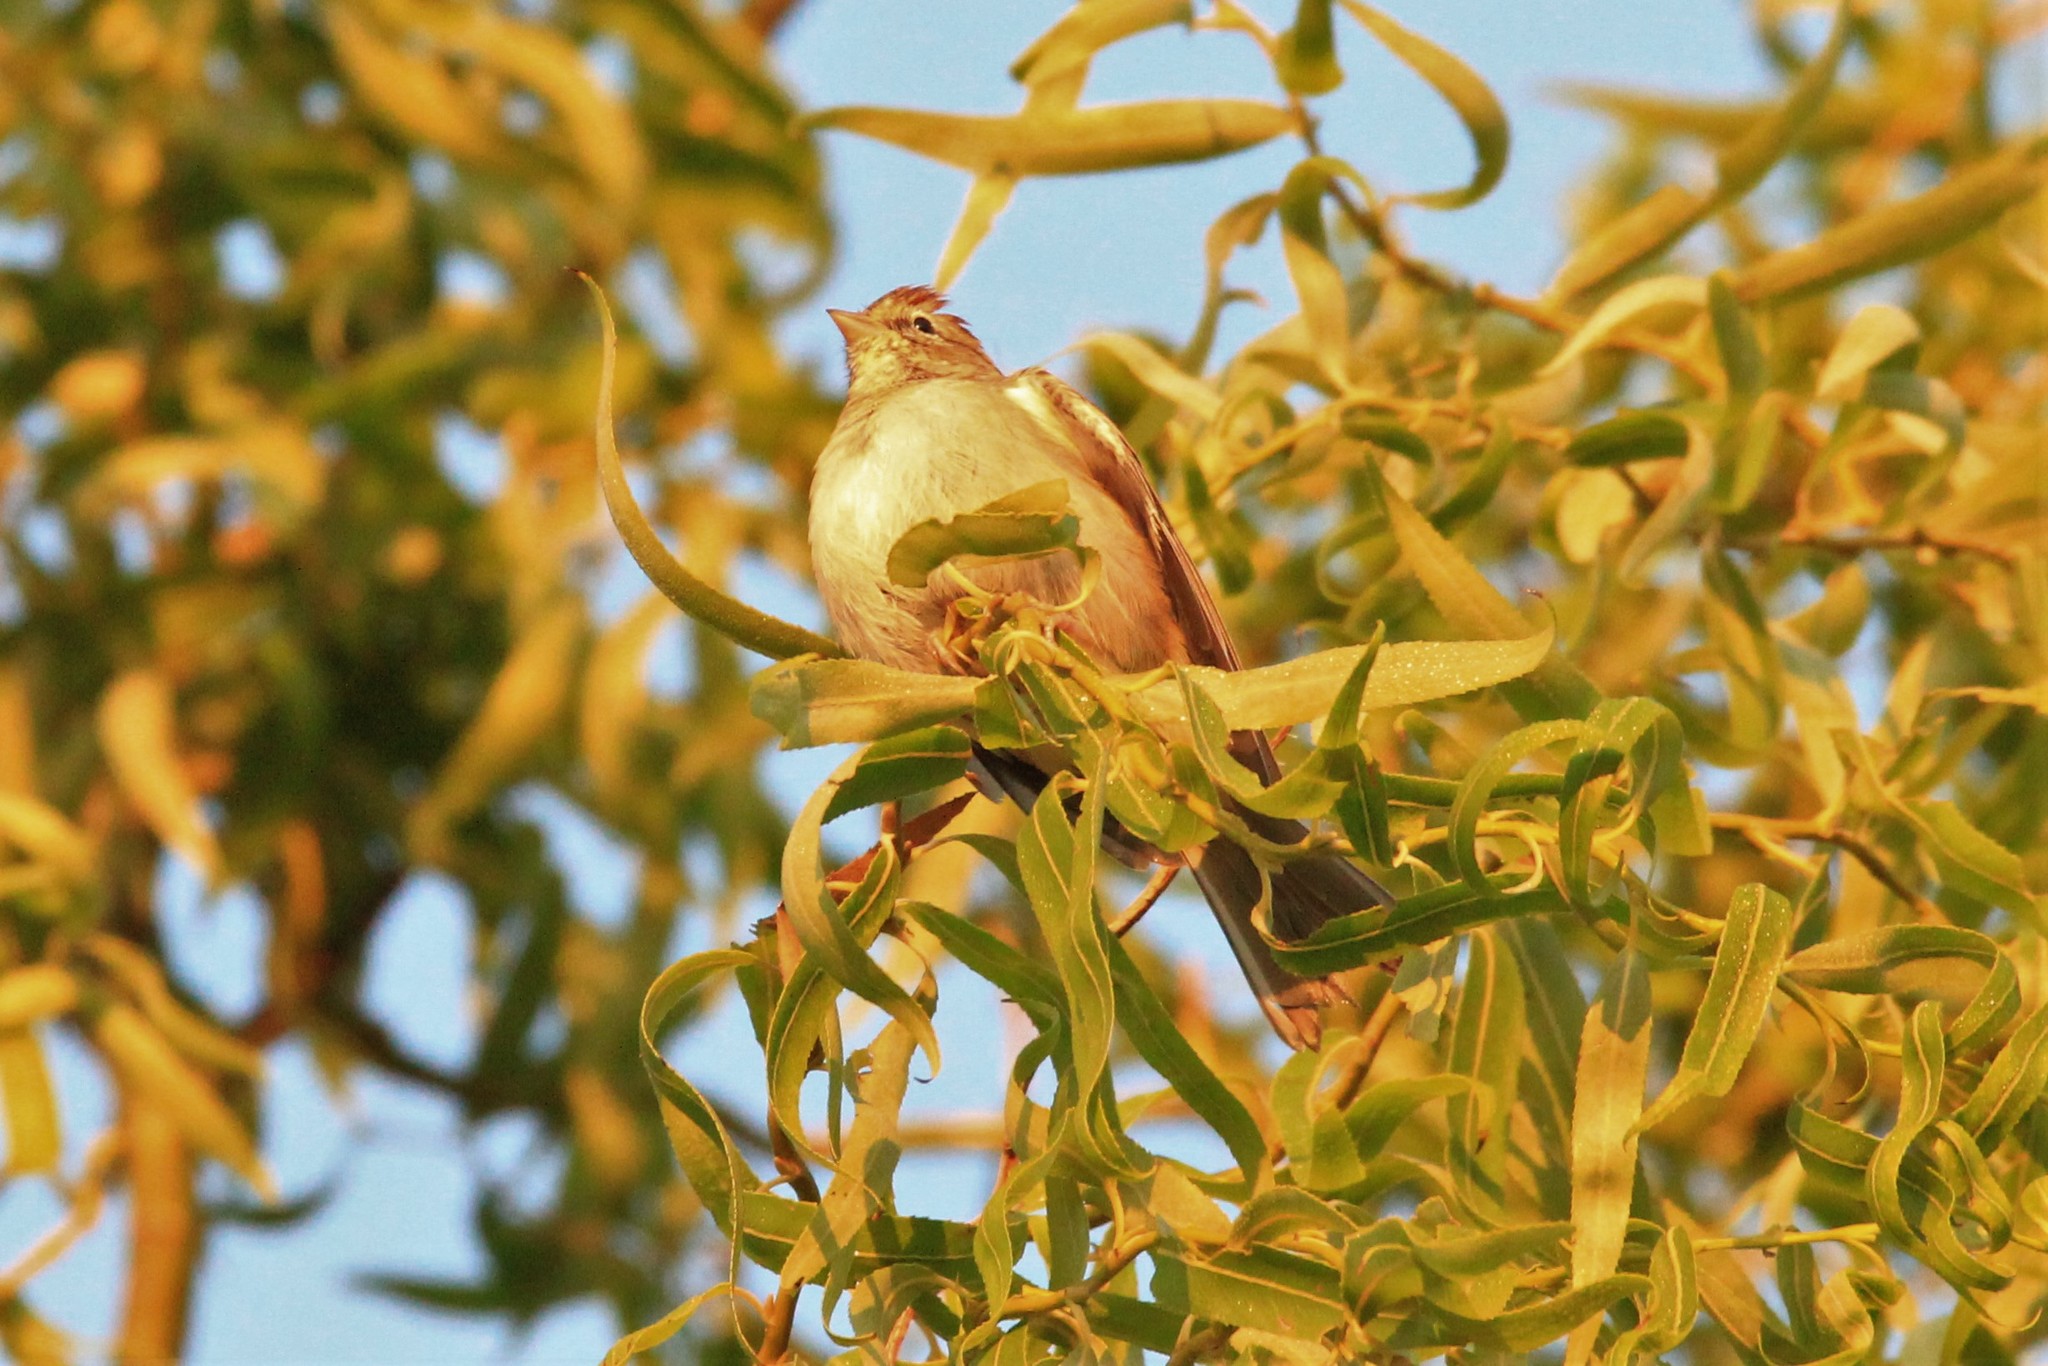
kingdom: Animalia
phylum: Chordata
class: Aves
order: Passeriformes
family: Passerellidae
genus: Spizella
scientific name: Spizella passerina
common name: Chipping sparrow
